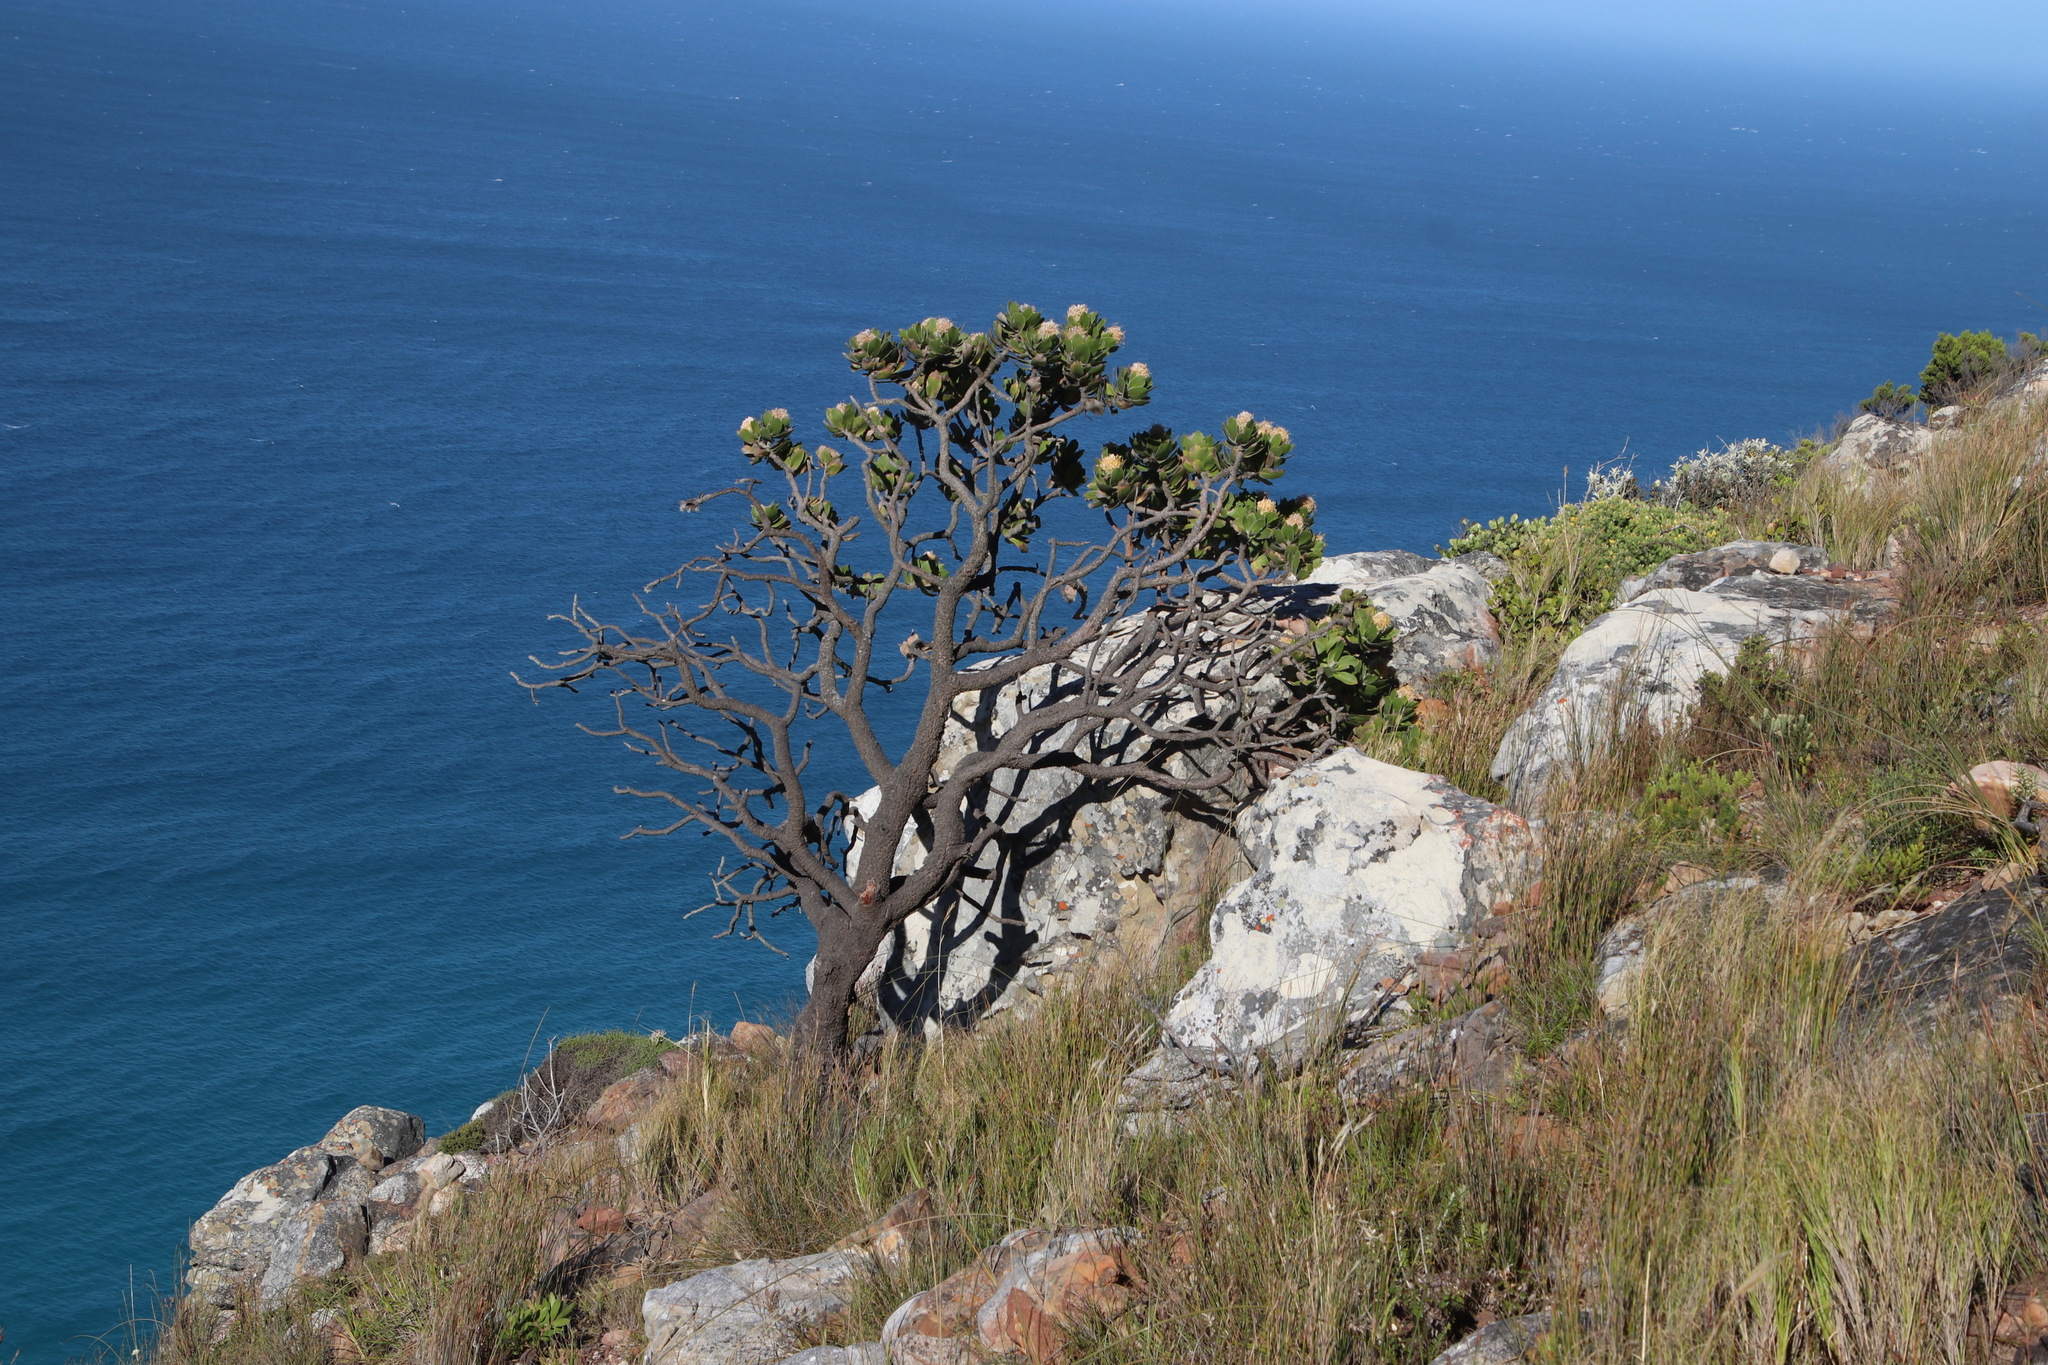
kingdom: Plantae
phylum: Tracheophyta
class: Magnoliopsida
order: Proteales
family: Proteaceae
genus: Leucospermum
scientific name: Leucospermum conocarpodendron
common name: Tree pincushion
